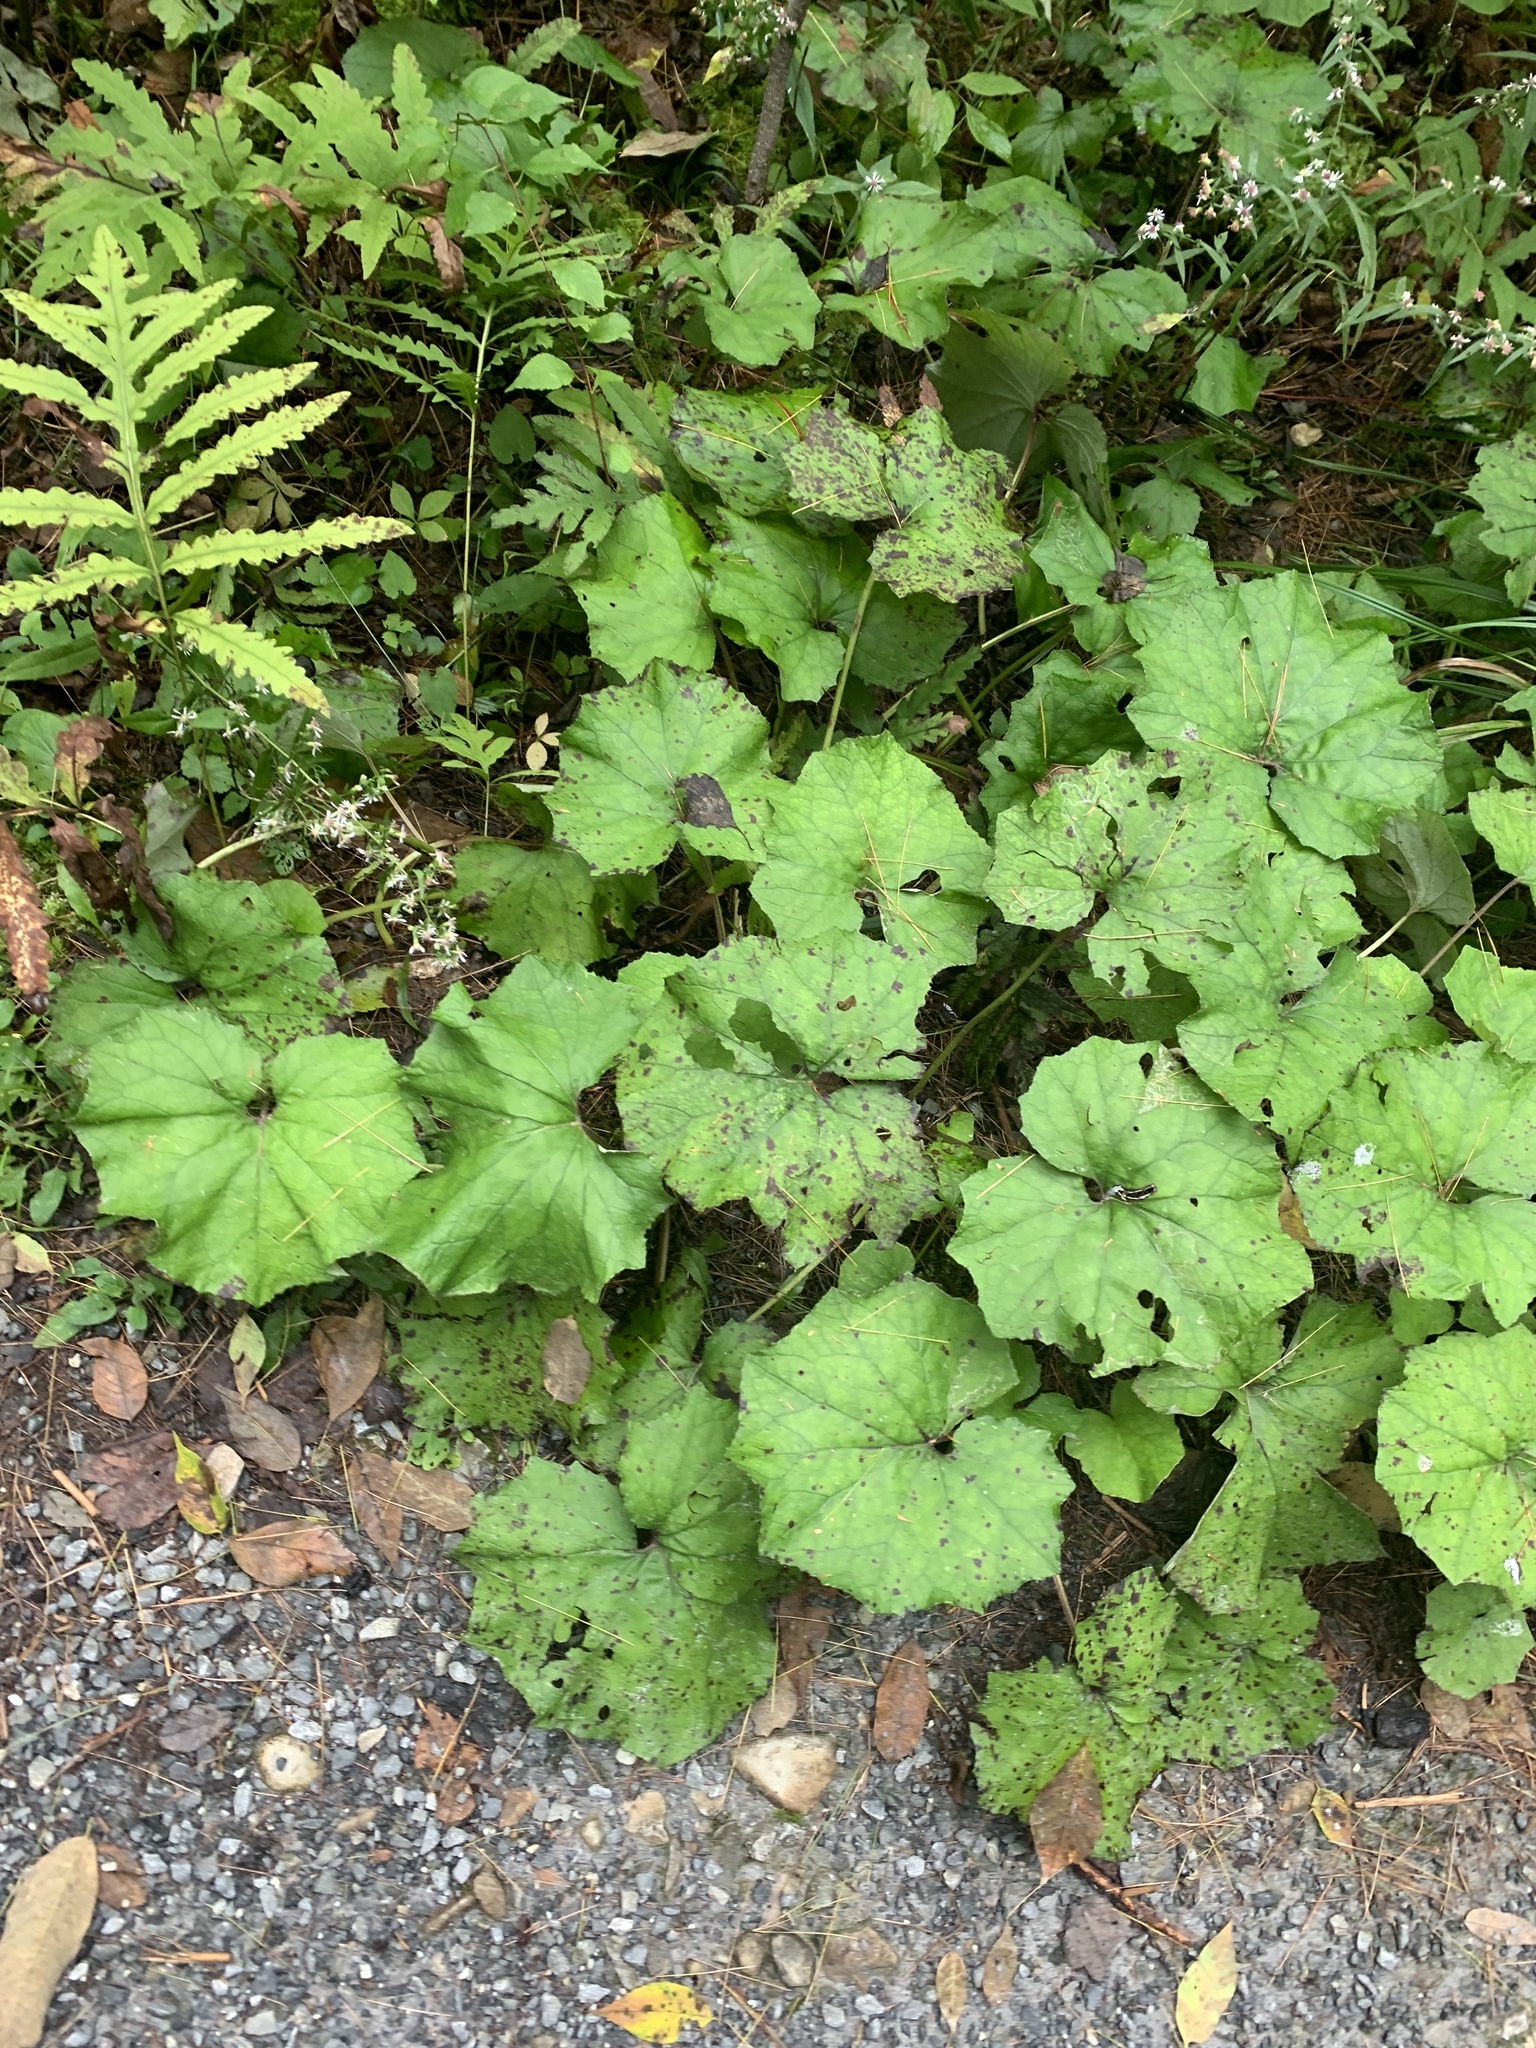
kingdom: Plantae
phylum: Tracheophyta
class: Magnoliopsida
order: Asterales
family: Asteraceae
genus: Tussilago
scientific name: Tussilago farfara
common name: Coltsfoot
